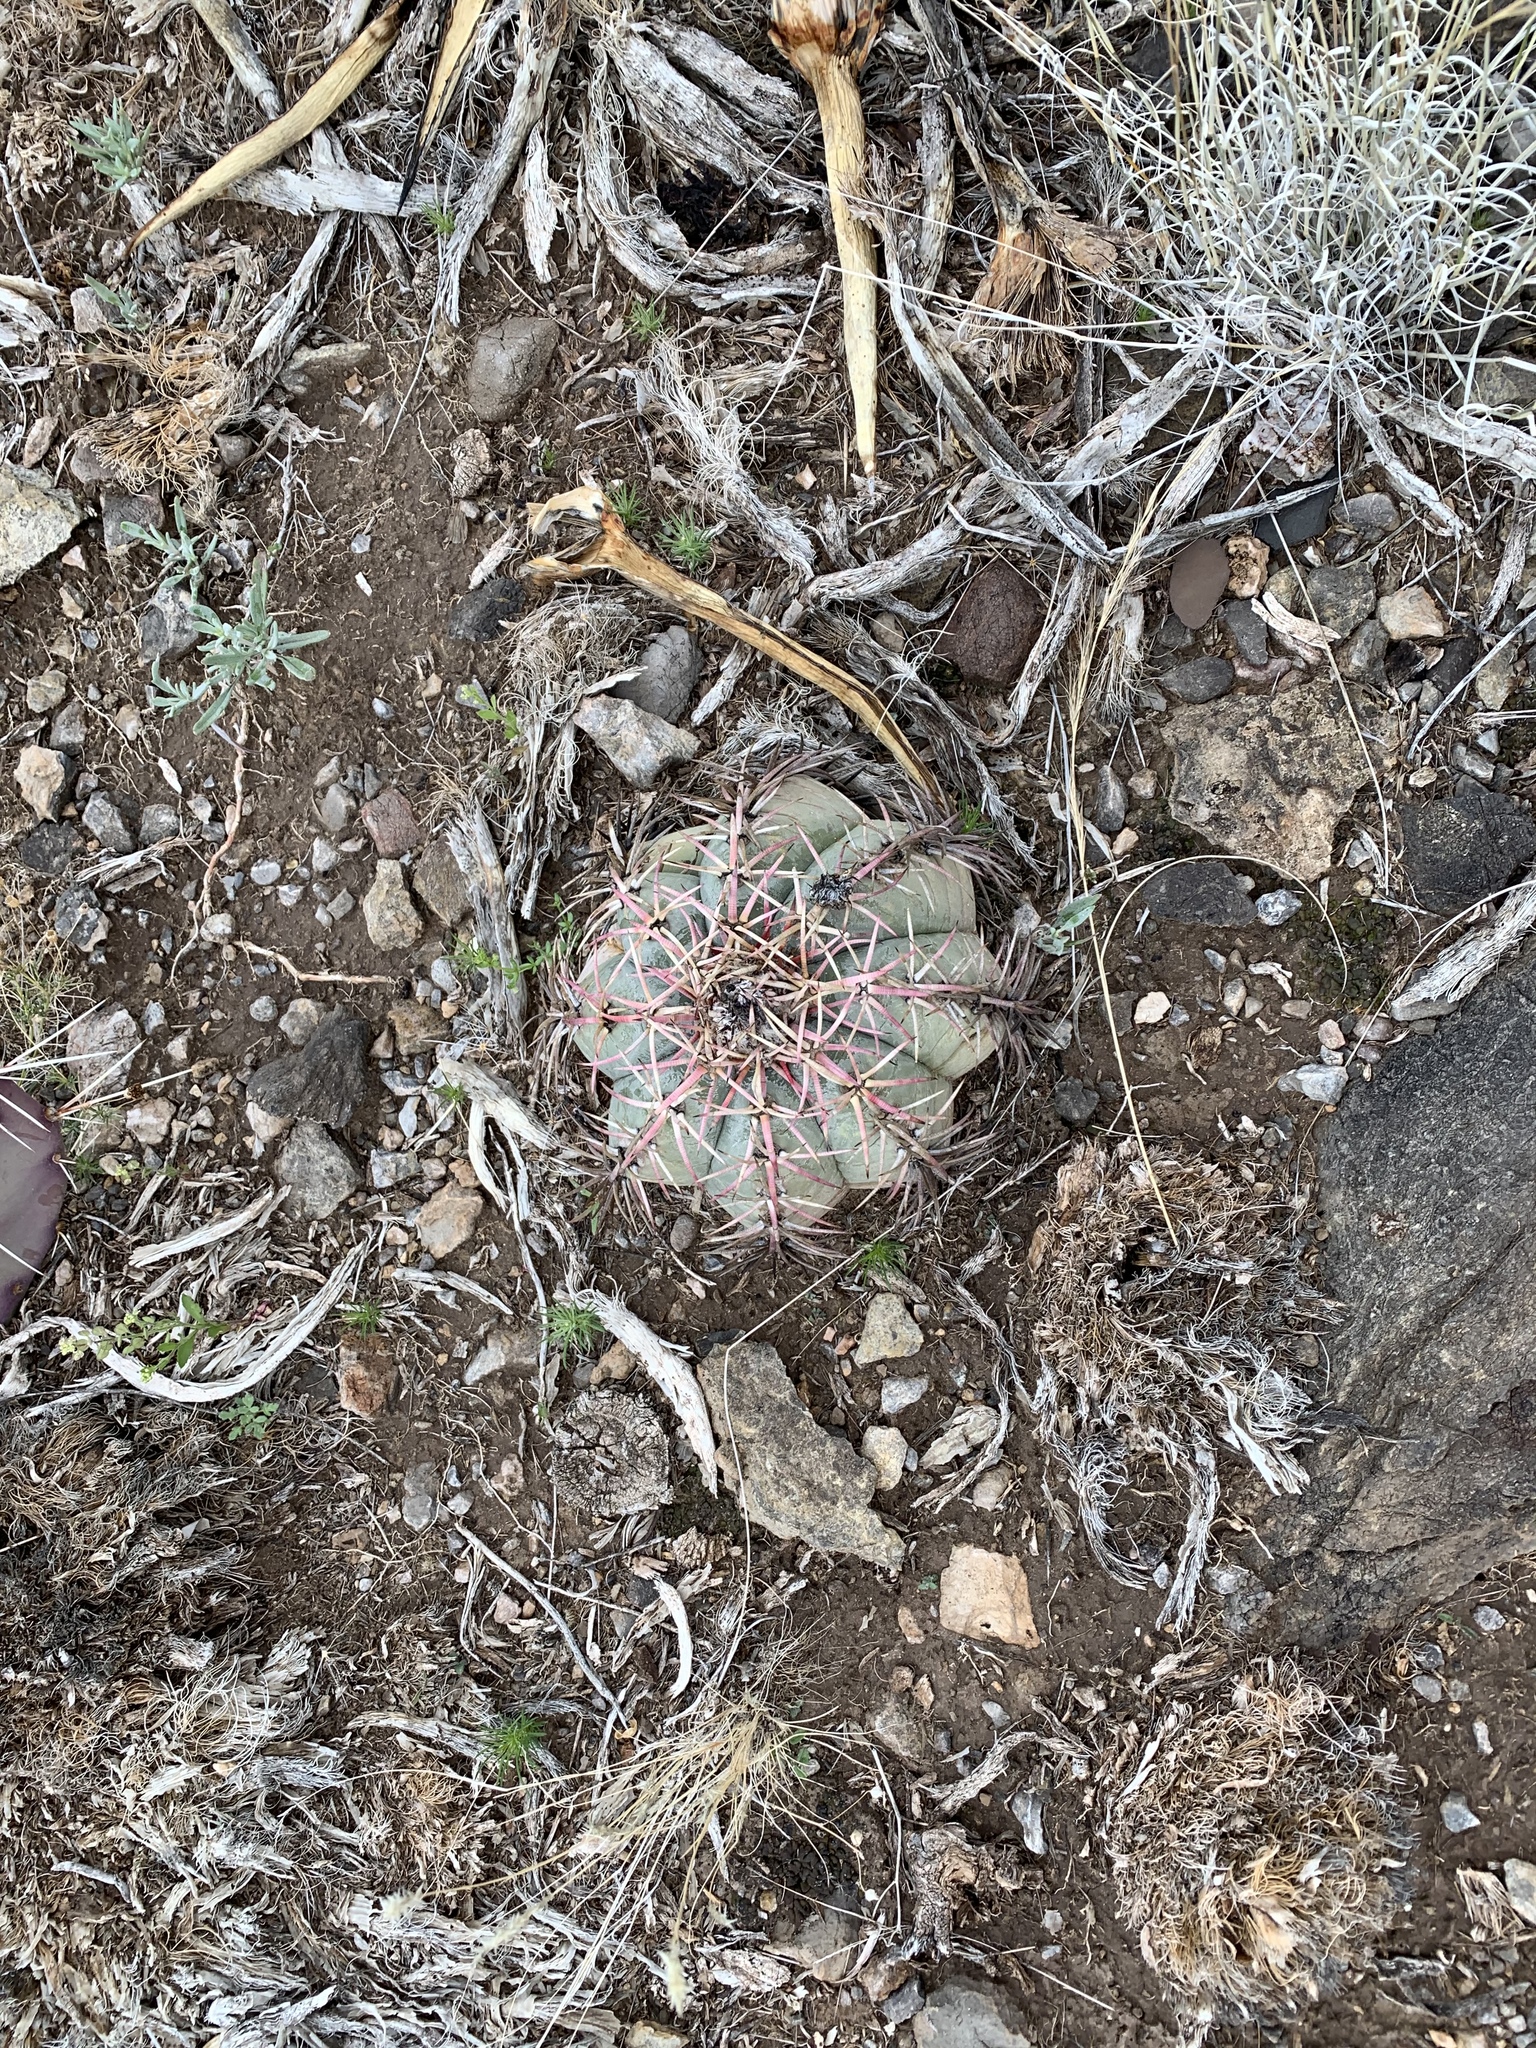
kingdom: Plantae
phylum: Tracheophyta
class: Magnoliopsida
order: Caryophyllales
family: Cactaceae
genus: Echinocactus
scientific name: Echinocactus horizonthalonius
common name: Devilshead
